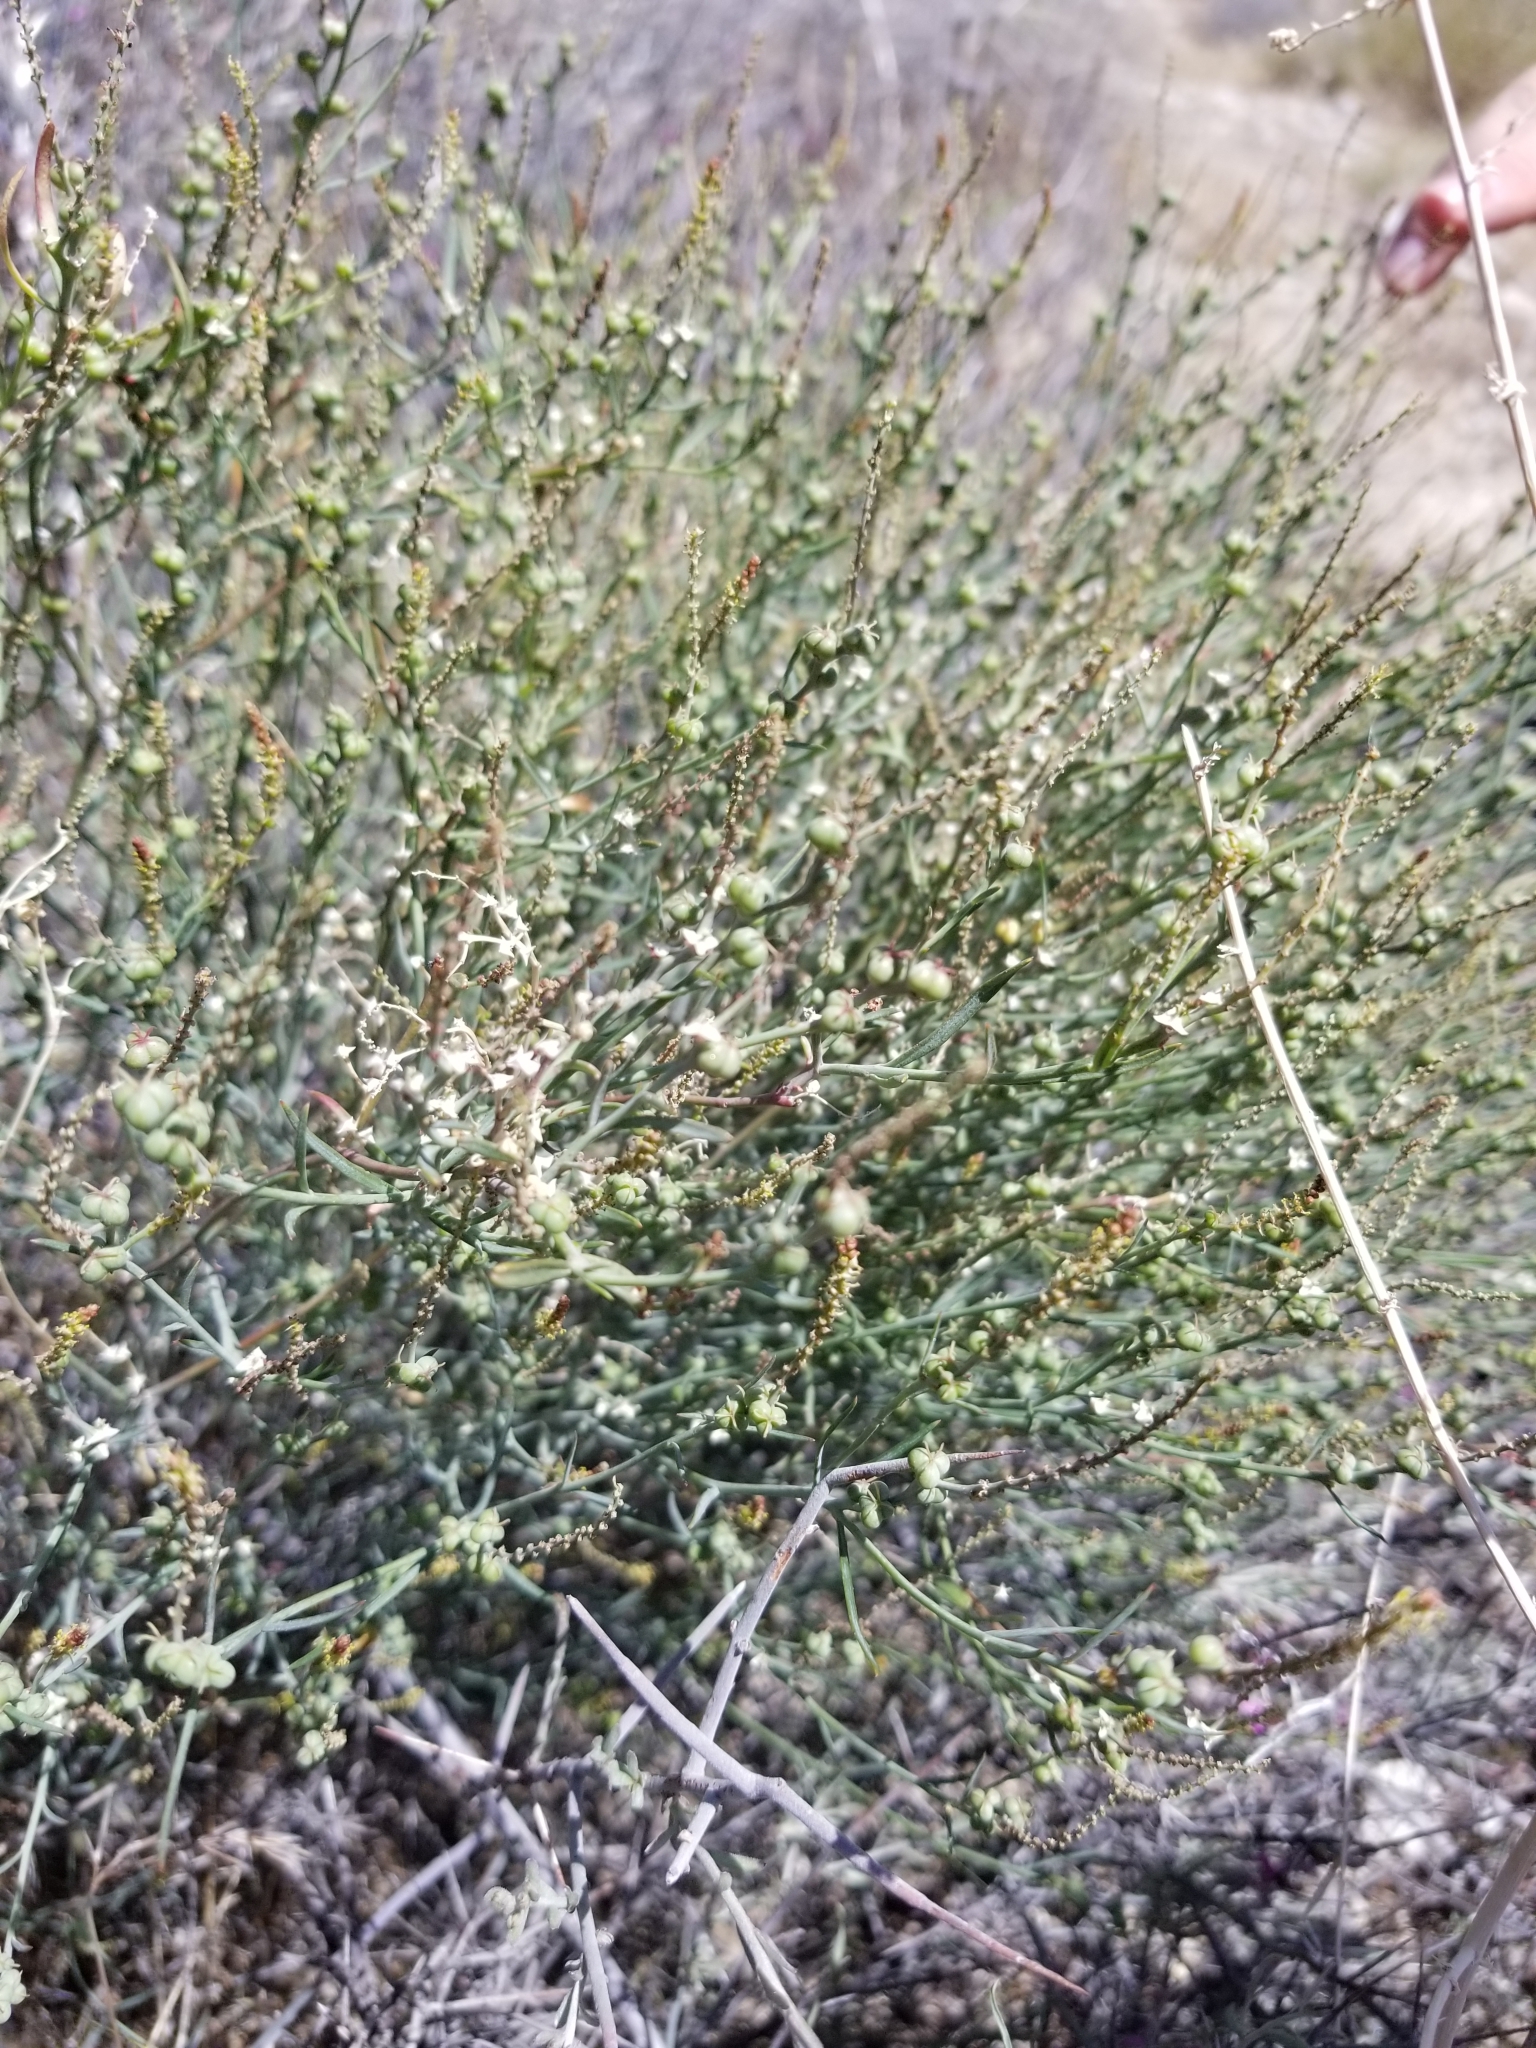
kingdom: Plantae
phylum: Tracheophyta
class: Magnoliopsida
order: Malpighiales
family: Euphorbiaceae
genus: Stillingia
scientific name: Stillingia linearifolia
